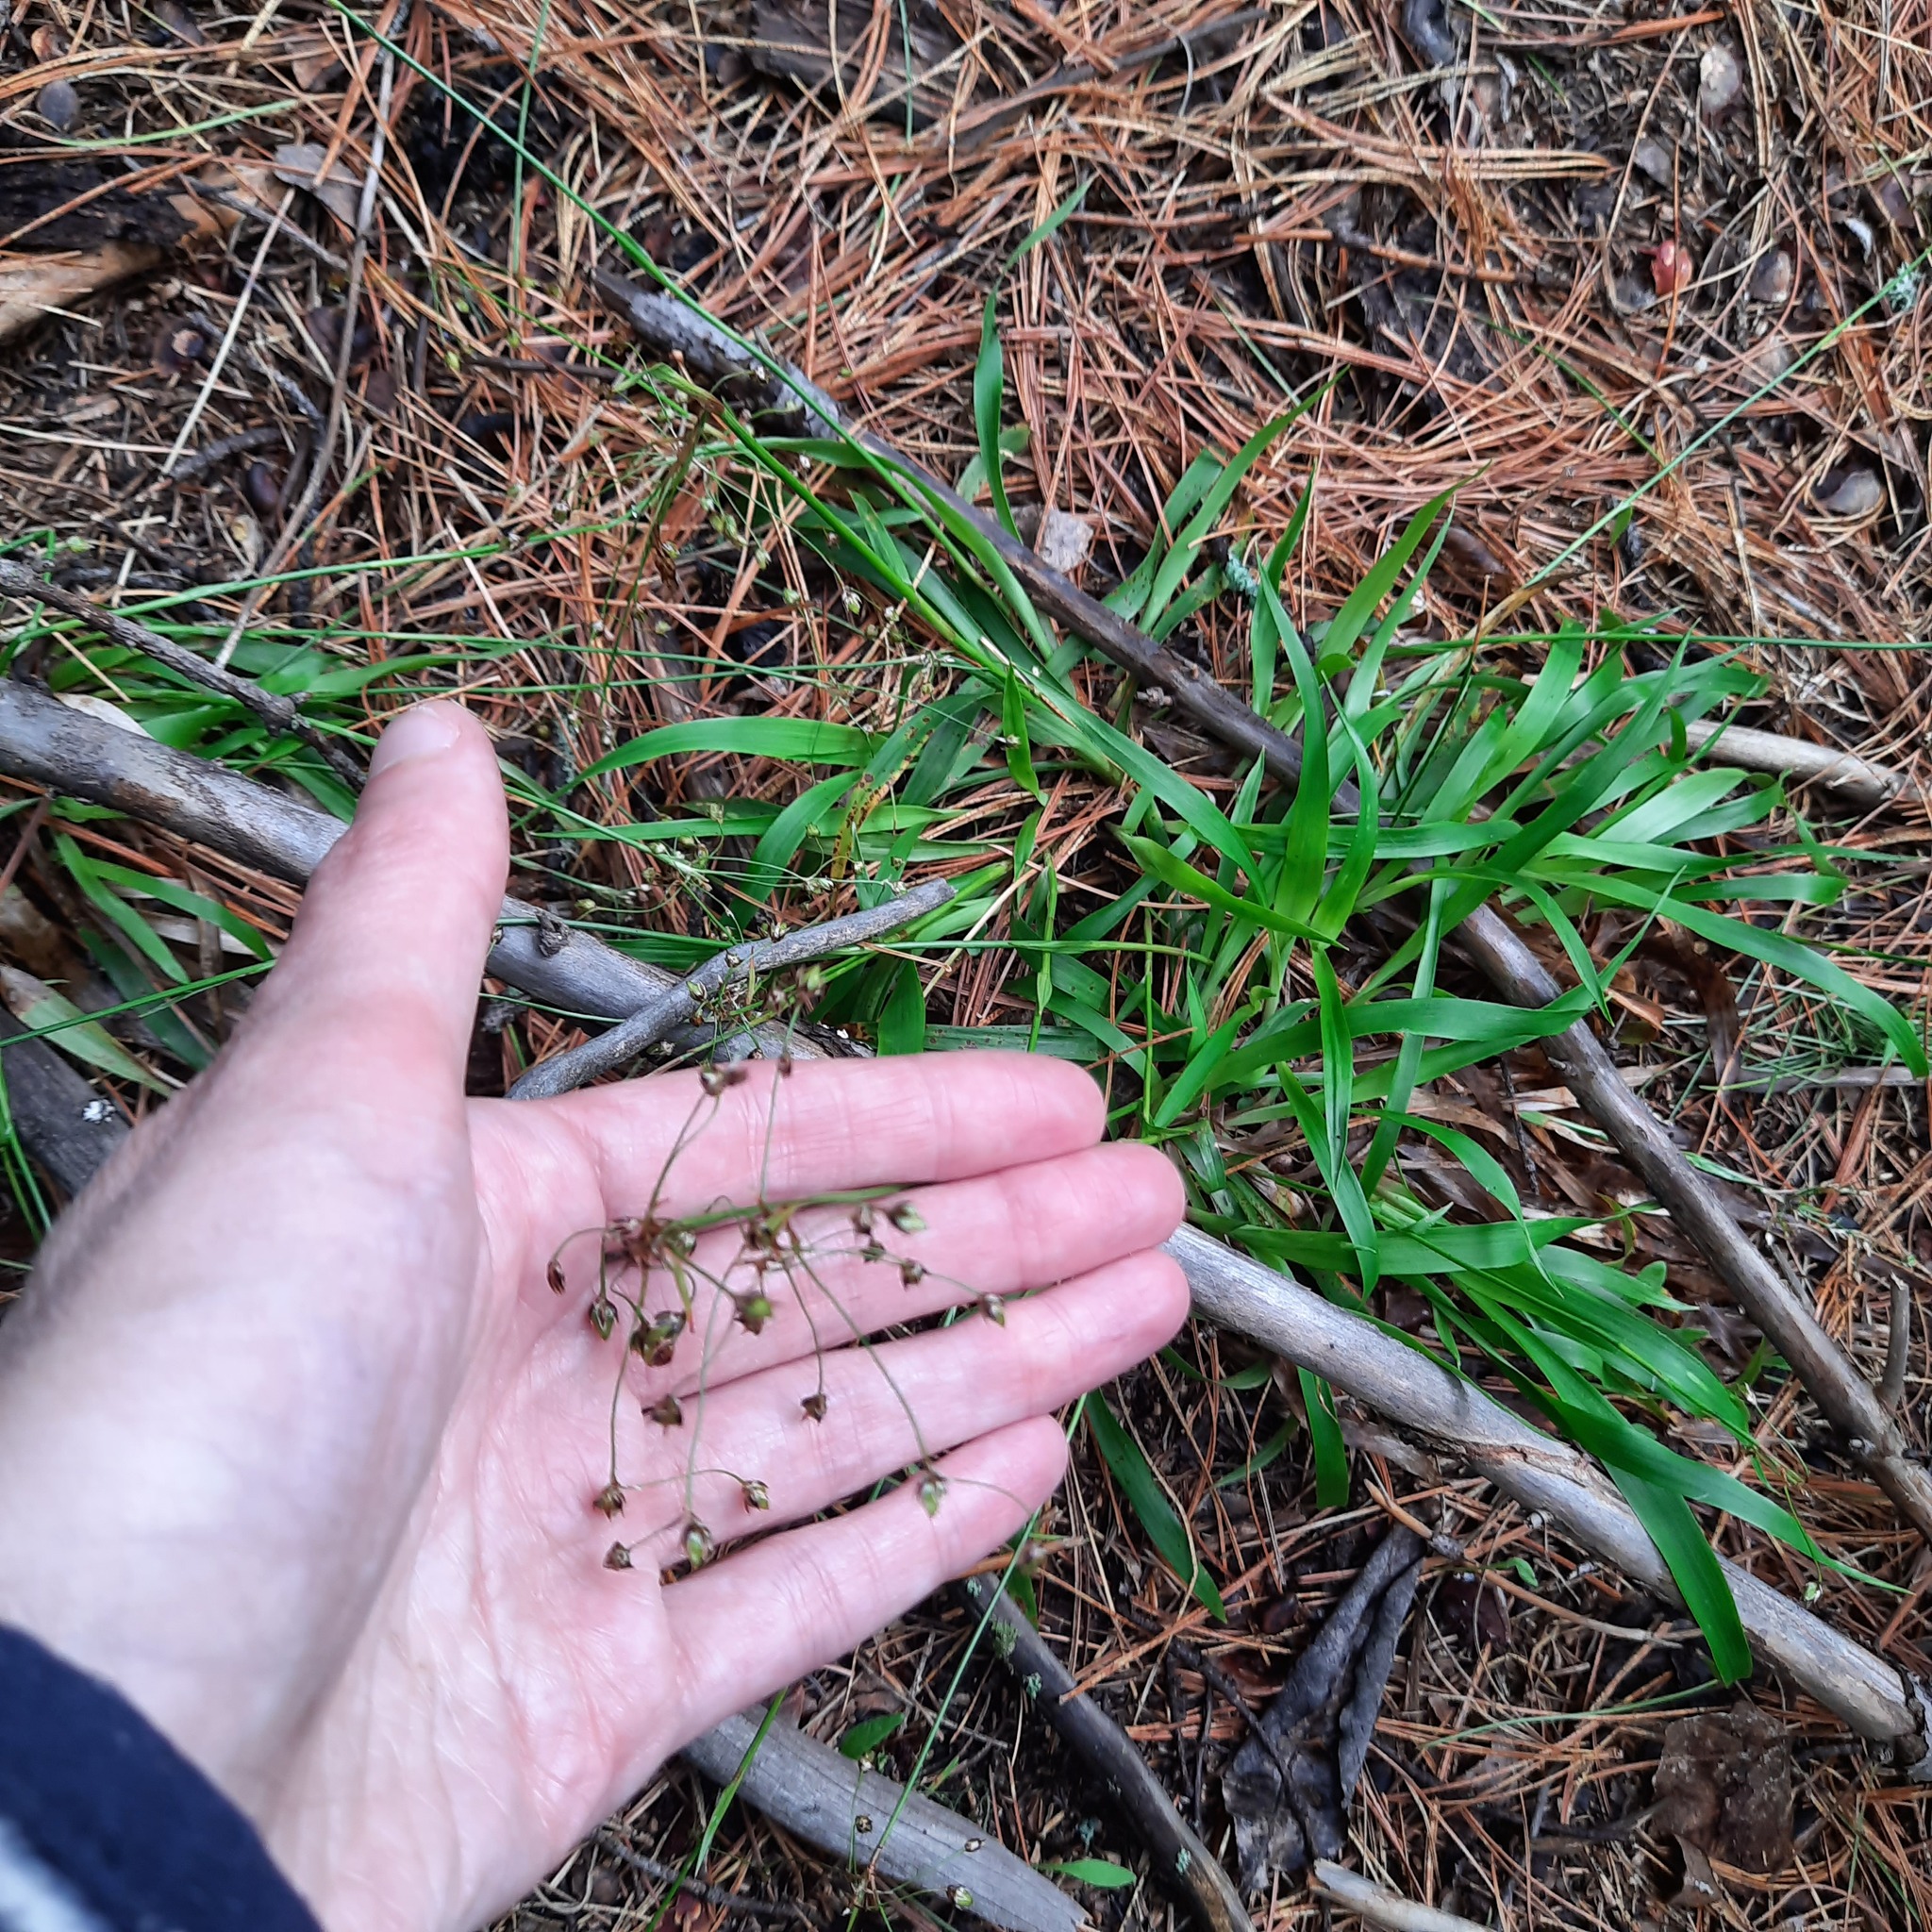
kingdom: Plantae
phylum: Tracheophyta
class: Liliopsida
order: Poales
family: Juncaceae
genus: Luzula
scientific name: Luzula pilosa
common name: Hairy wood-rush
